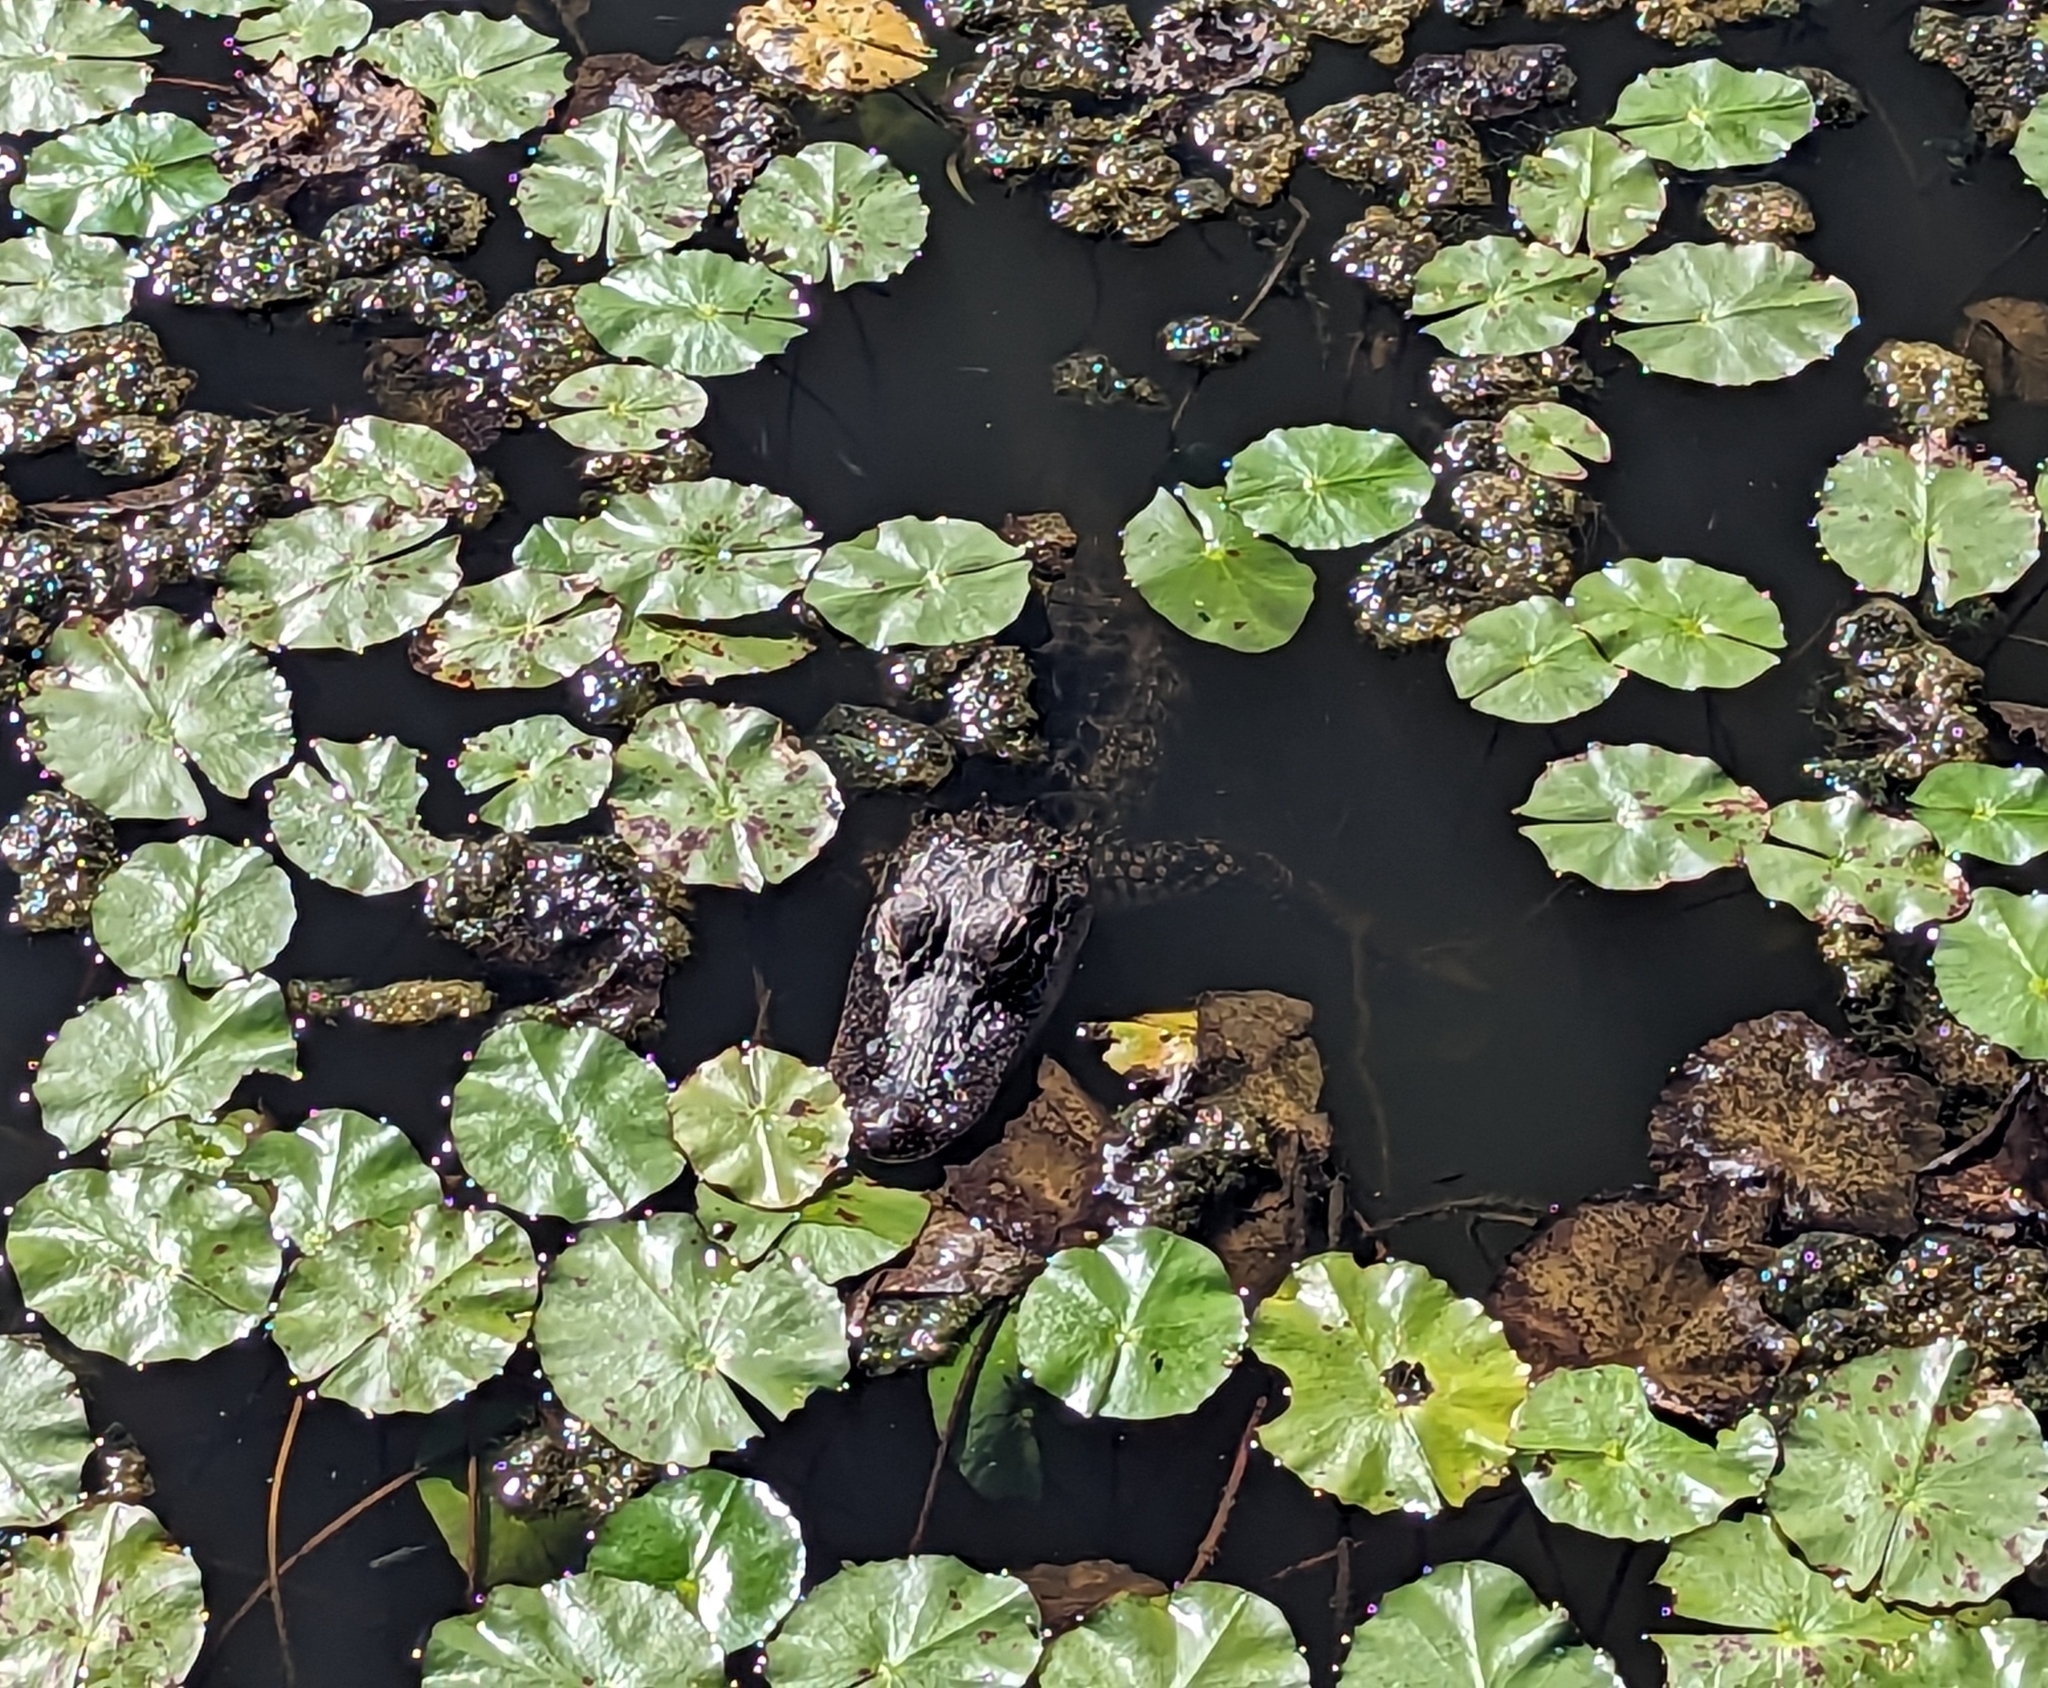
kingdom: Animalia
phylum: Chordata
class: Crocodylia
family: Alligatoridae
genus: Alligator
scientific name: Alligator mississippiensis
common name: American alligator
